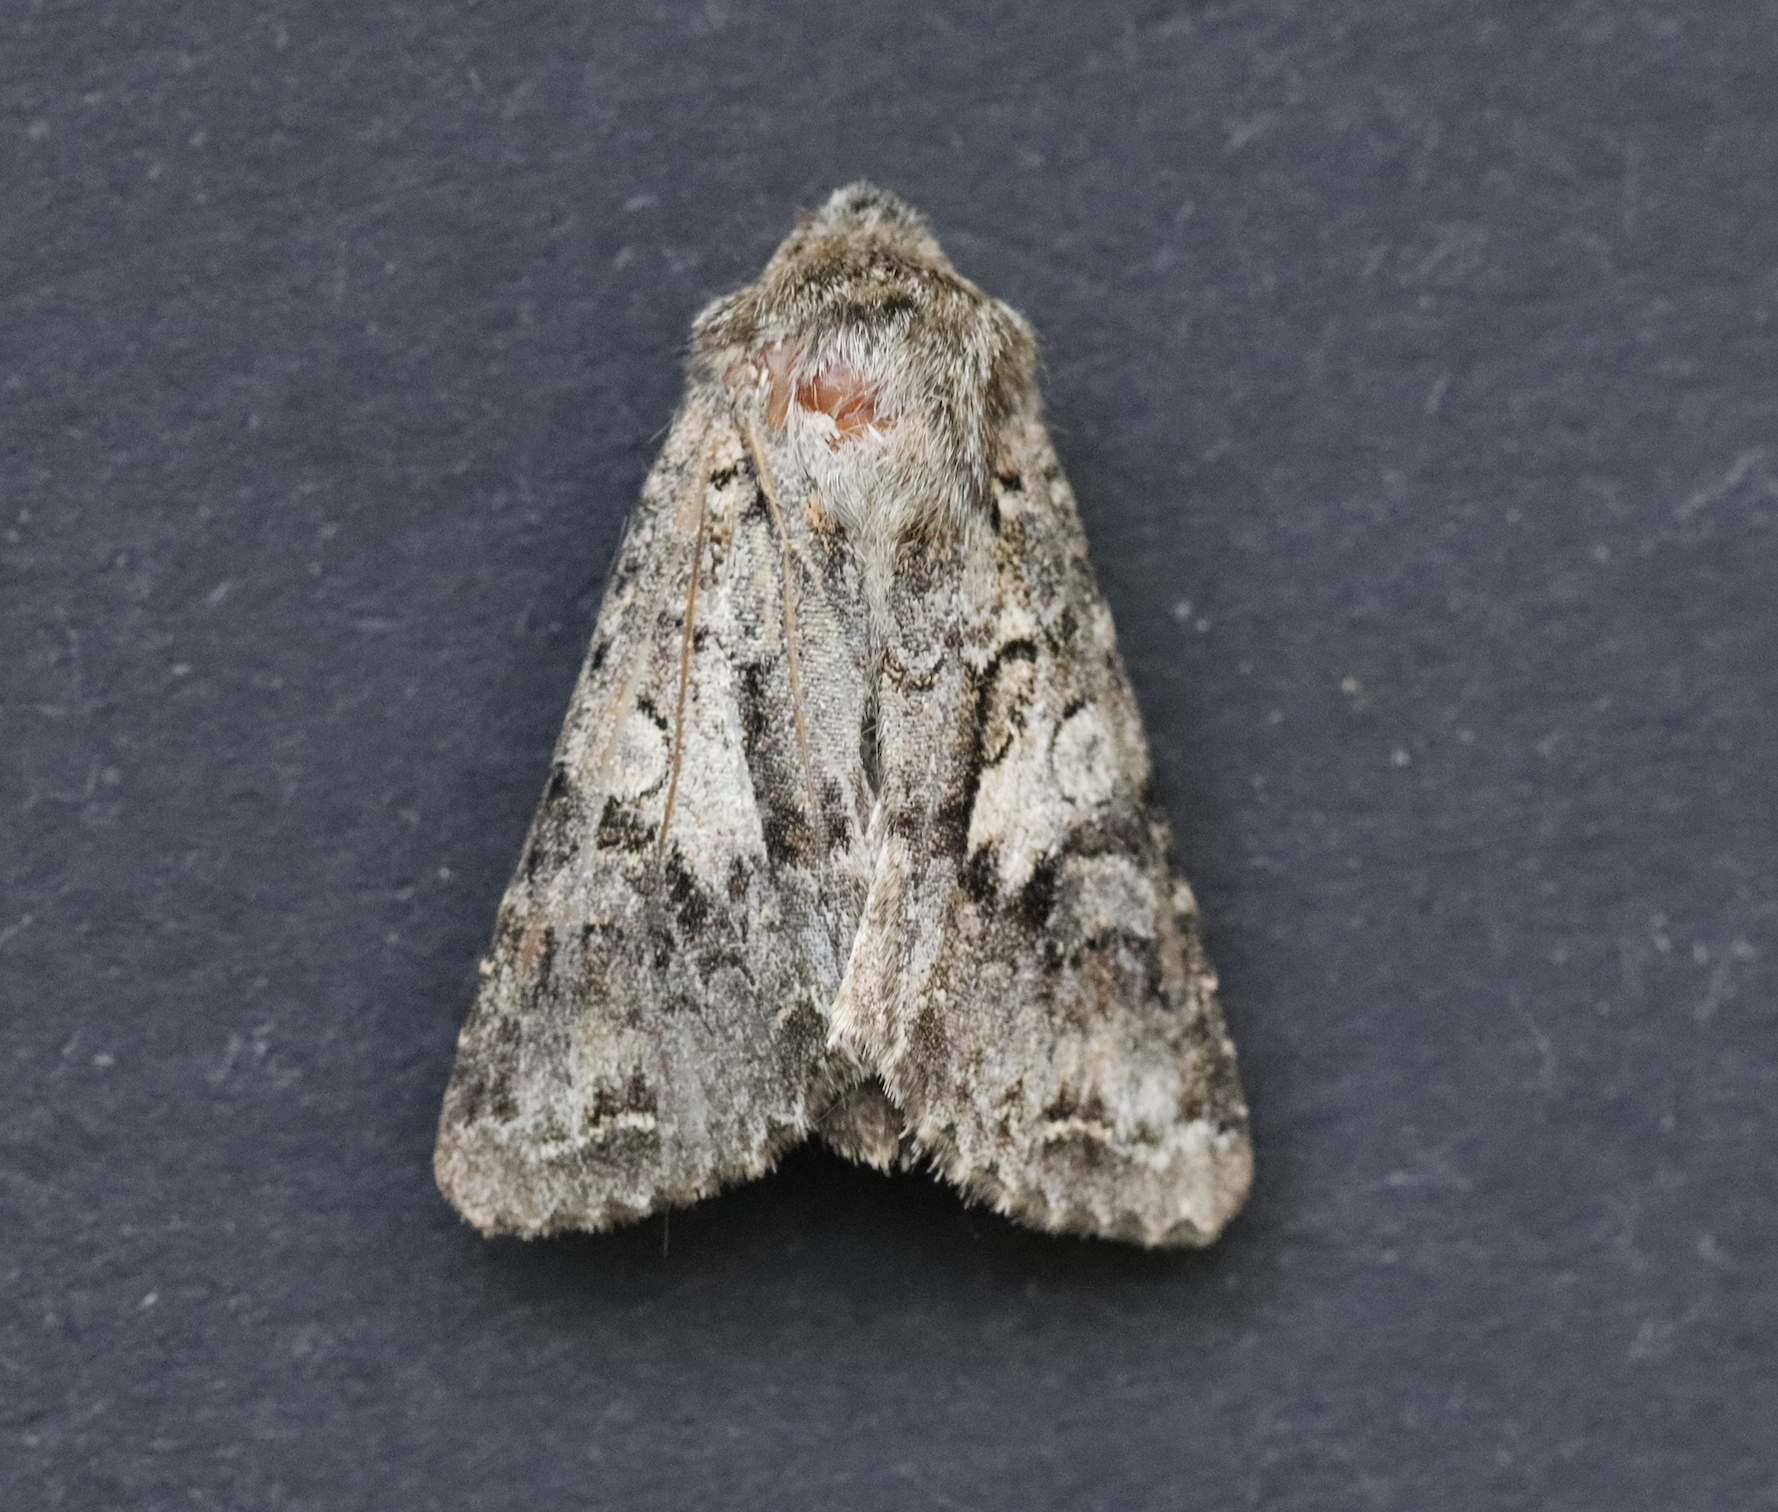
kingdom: Animalia
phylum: Arthropoda
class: Insecta
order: Lepidoptera
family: Noctuidae
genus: Hada
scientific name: Hada plebeja
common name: Shears
